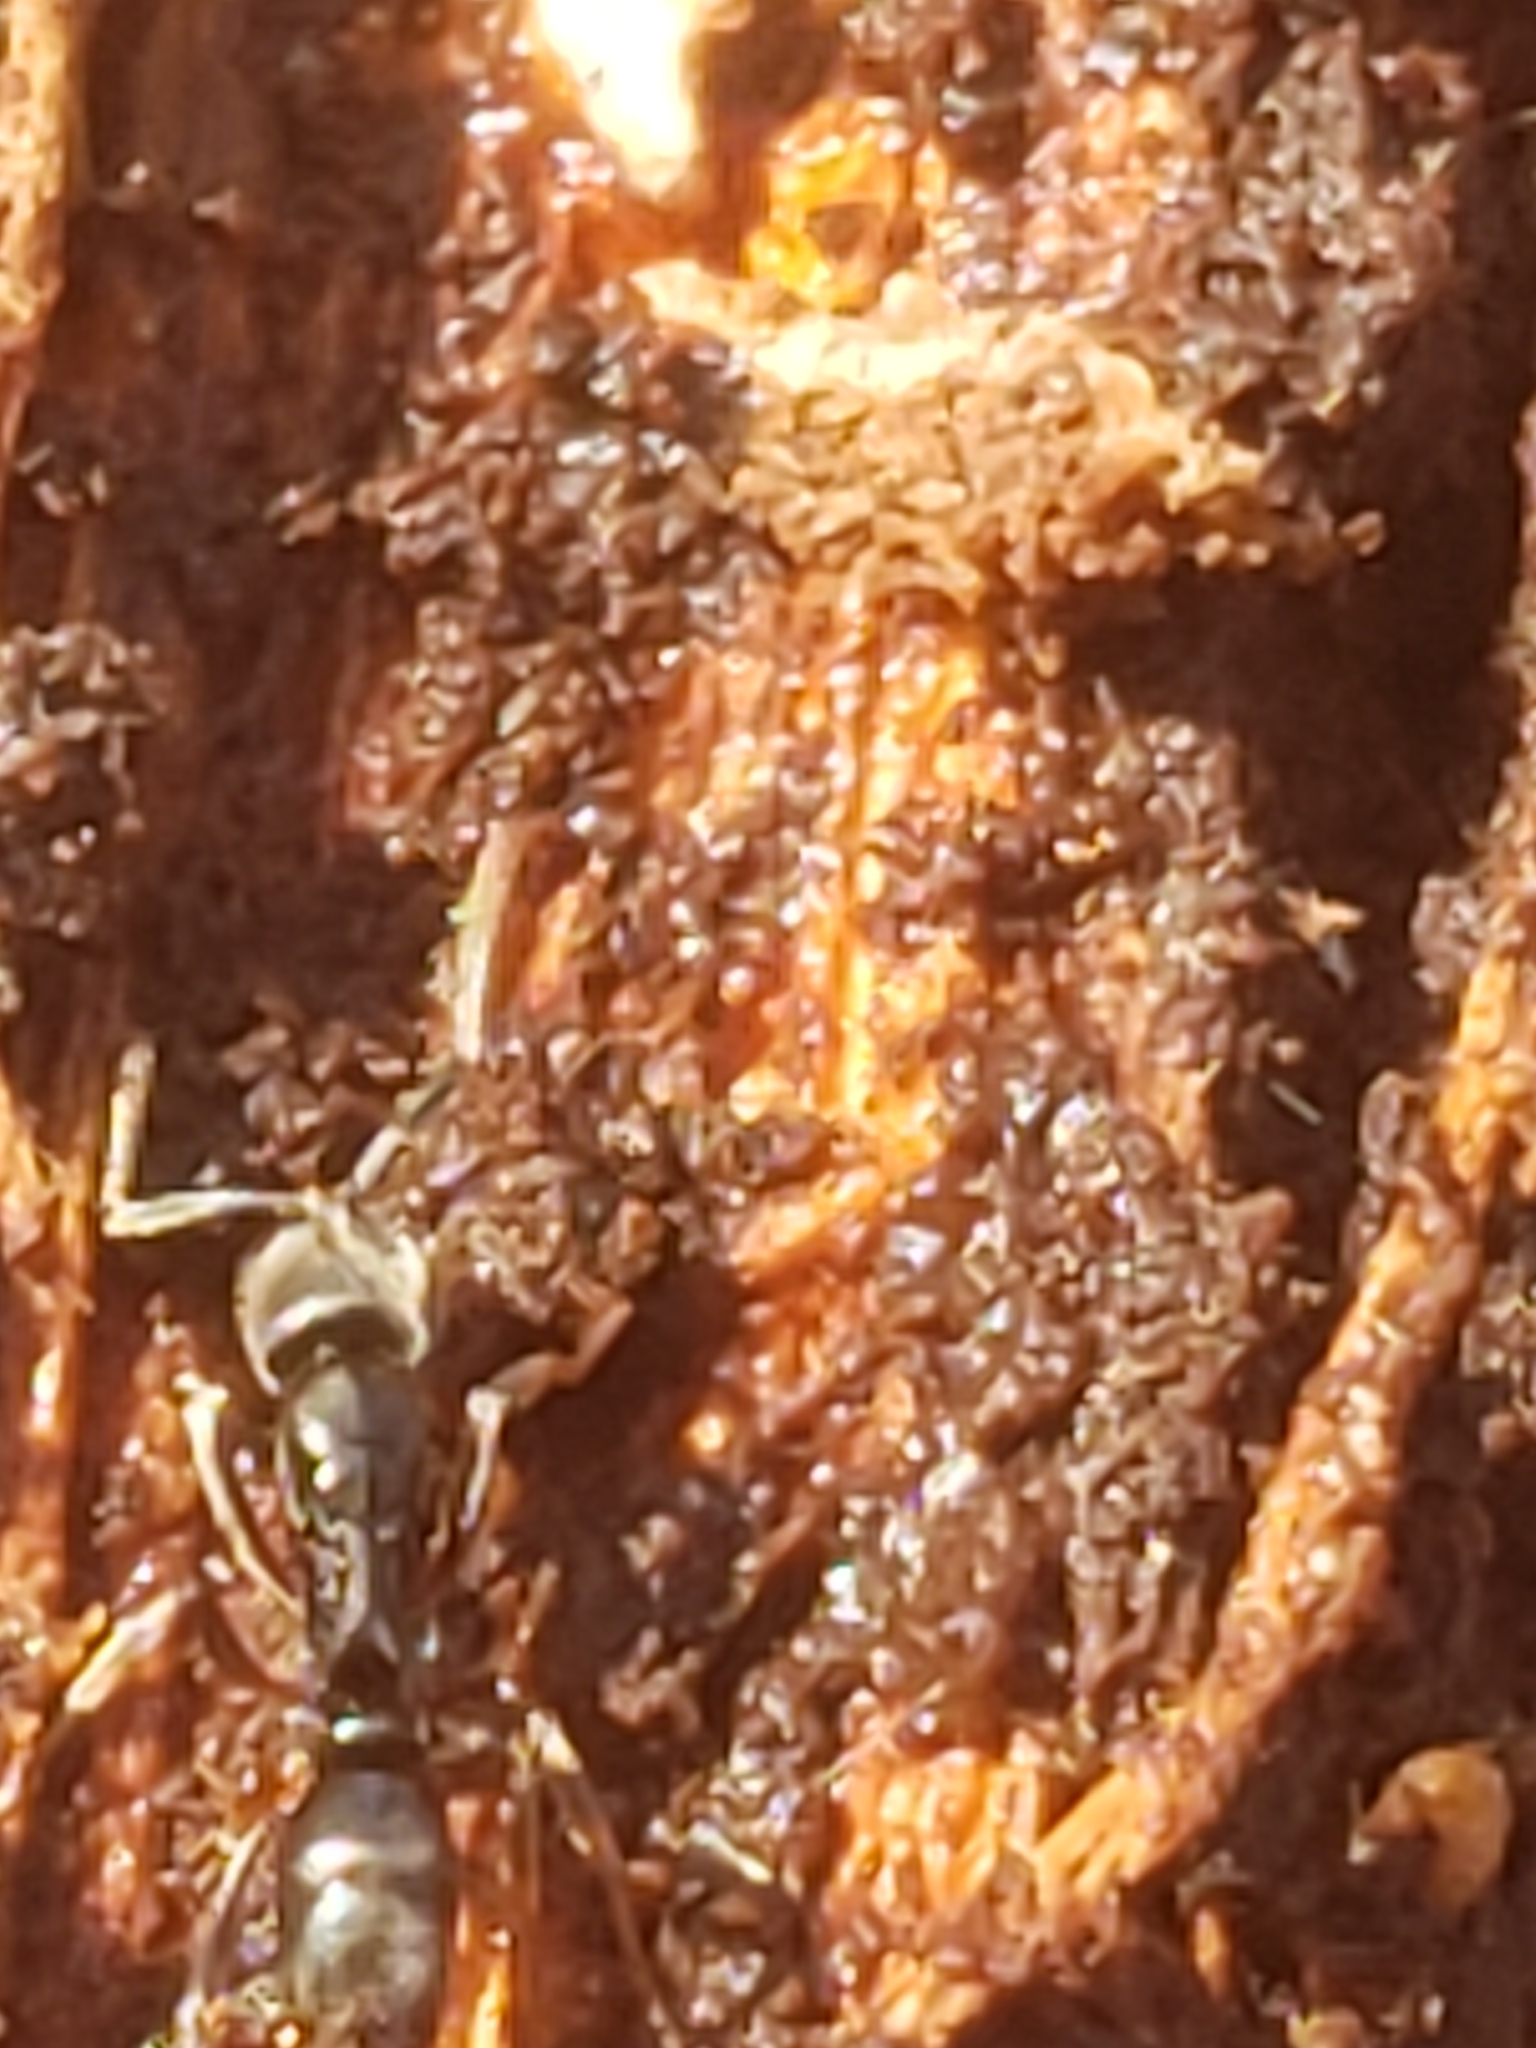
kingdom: Animalia
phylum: Arthropoda
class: Insecta
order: Hymenoptera
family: Formicidae
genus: Pachycondyla
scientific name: Pachycondyla chinensis
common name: Asian needle ant
